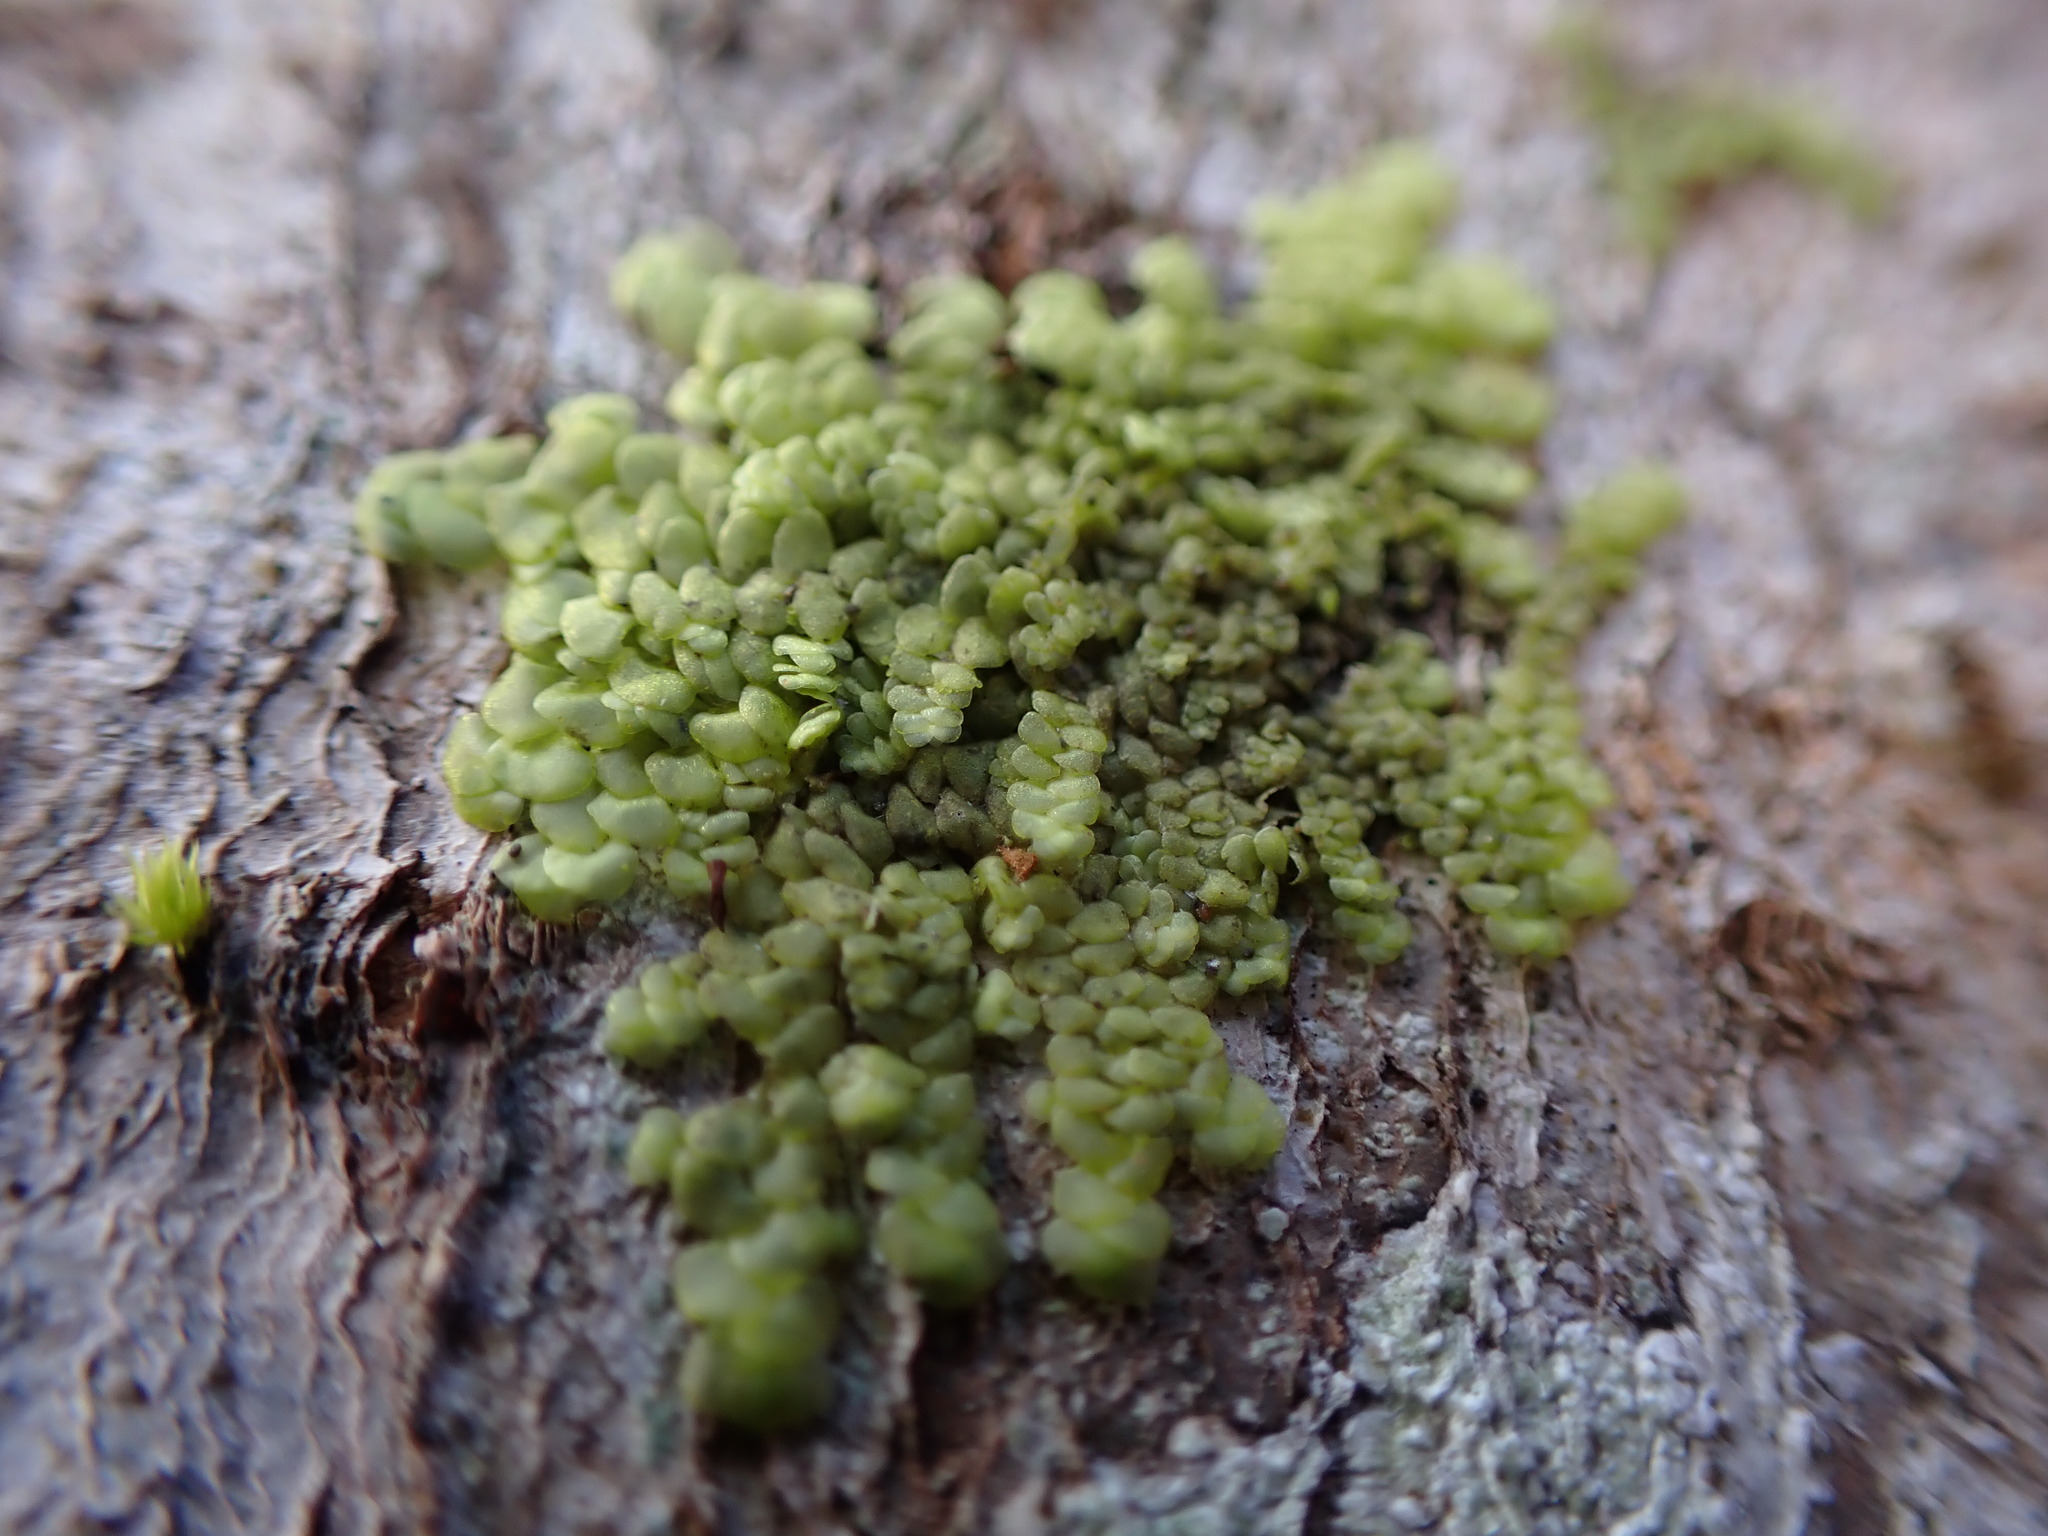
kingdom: Plantae
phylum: Marchantiophyta
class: Jungermanniopsida
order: Porellales
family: Radulaceae
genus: Radula
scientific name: Radula complanata
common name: Flat-leaved scalewort
